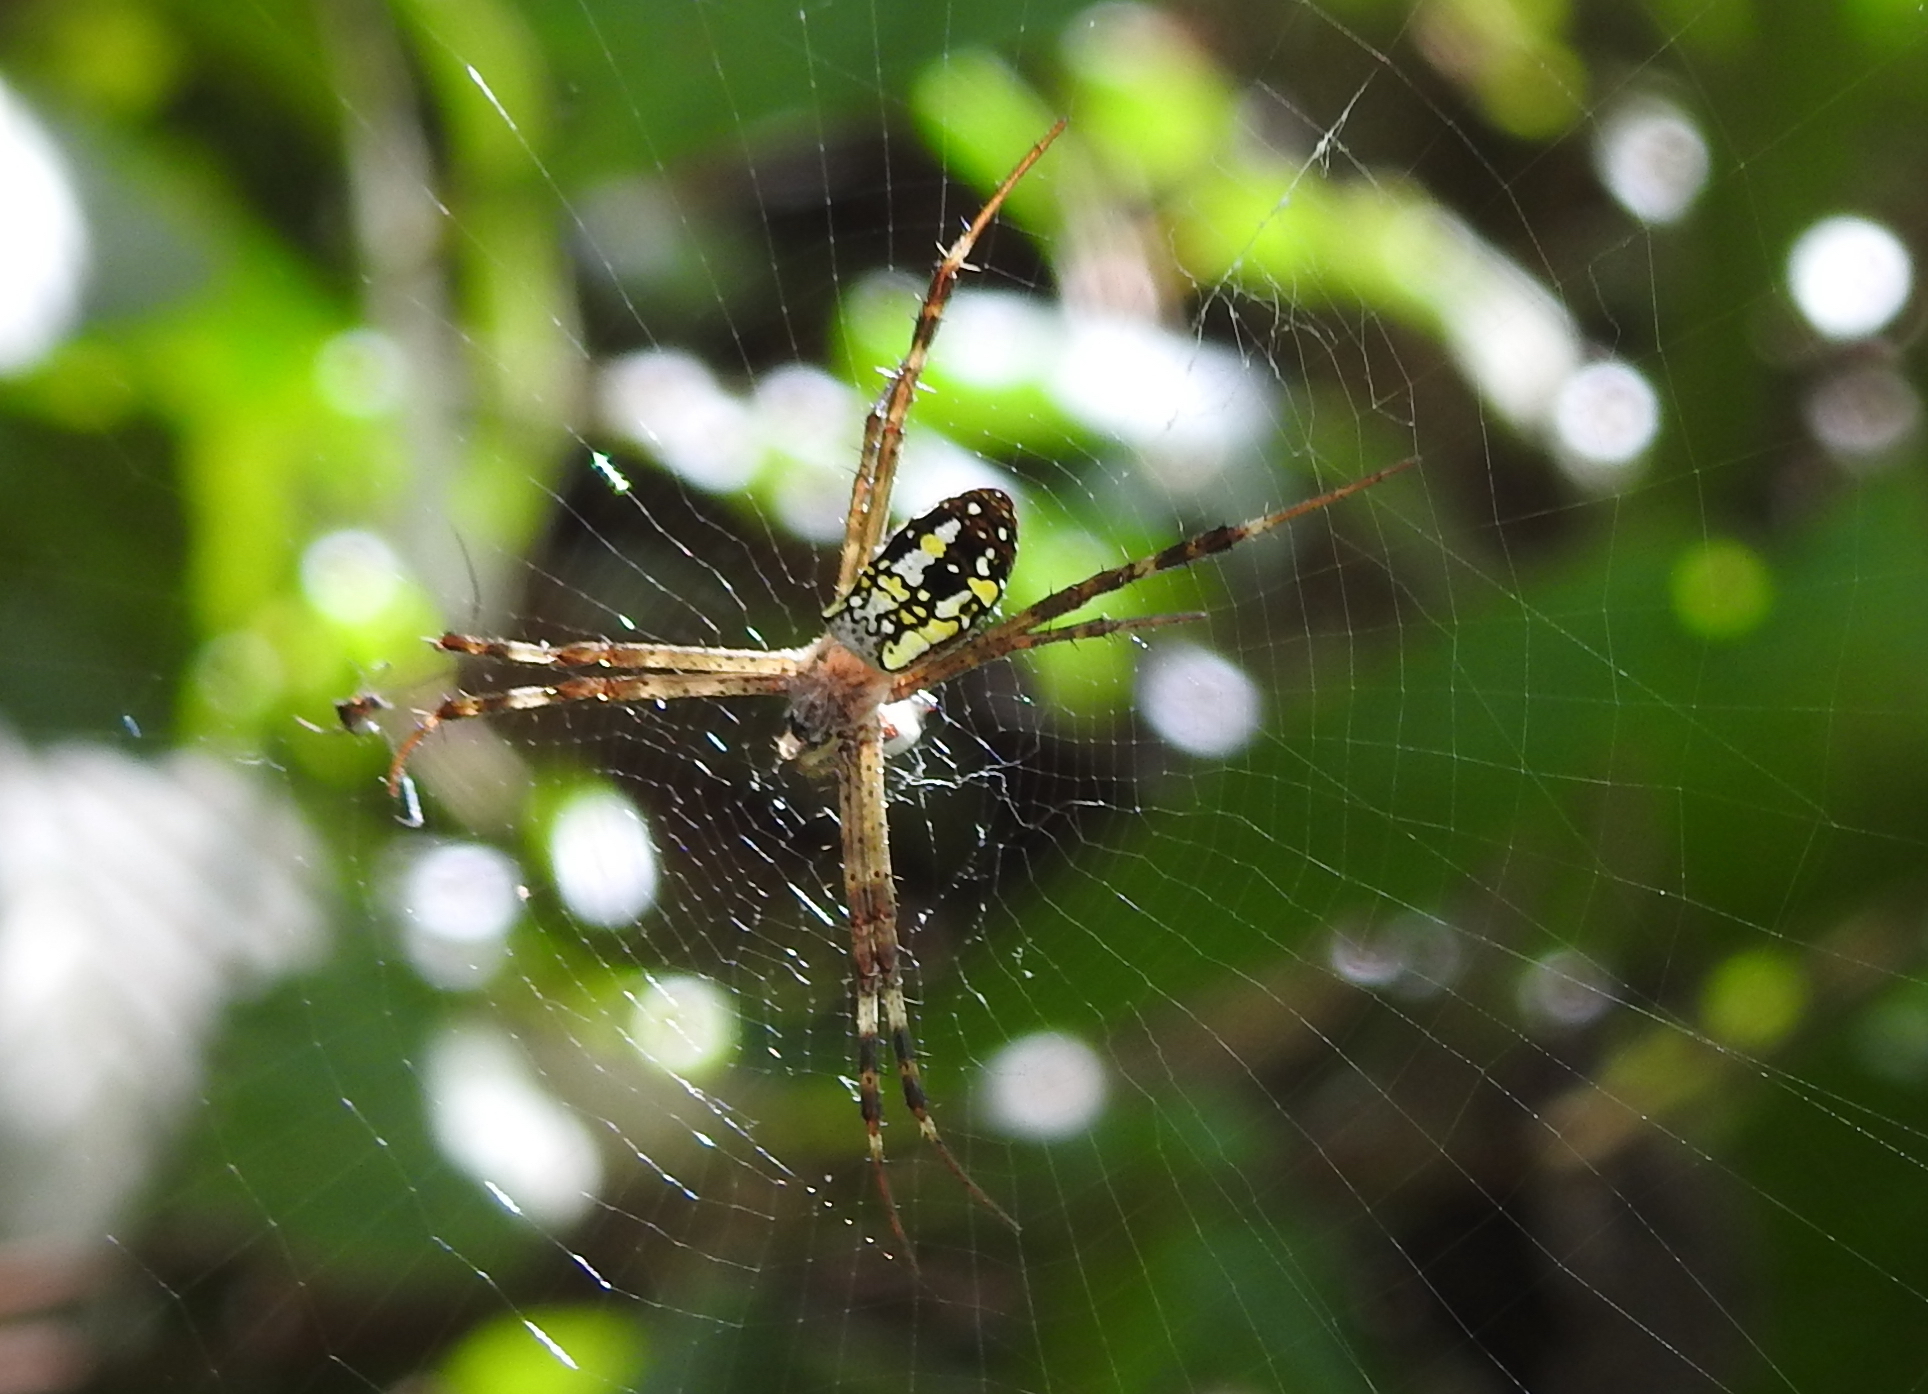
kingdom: Animalia
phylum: Arthropoda
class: Arachnida
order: Araneae
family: Araneidae
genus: Argiope
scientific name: Argiope dang
